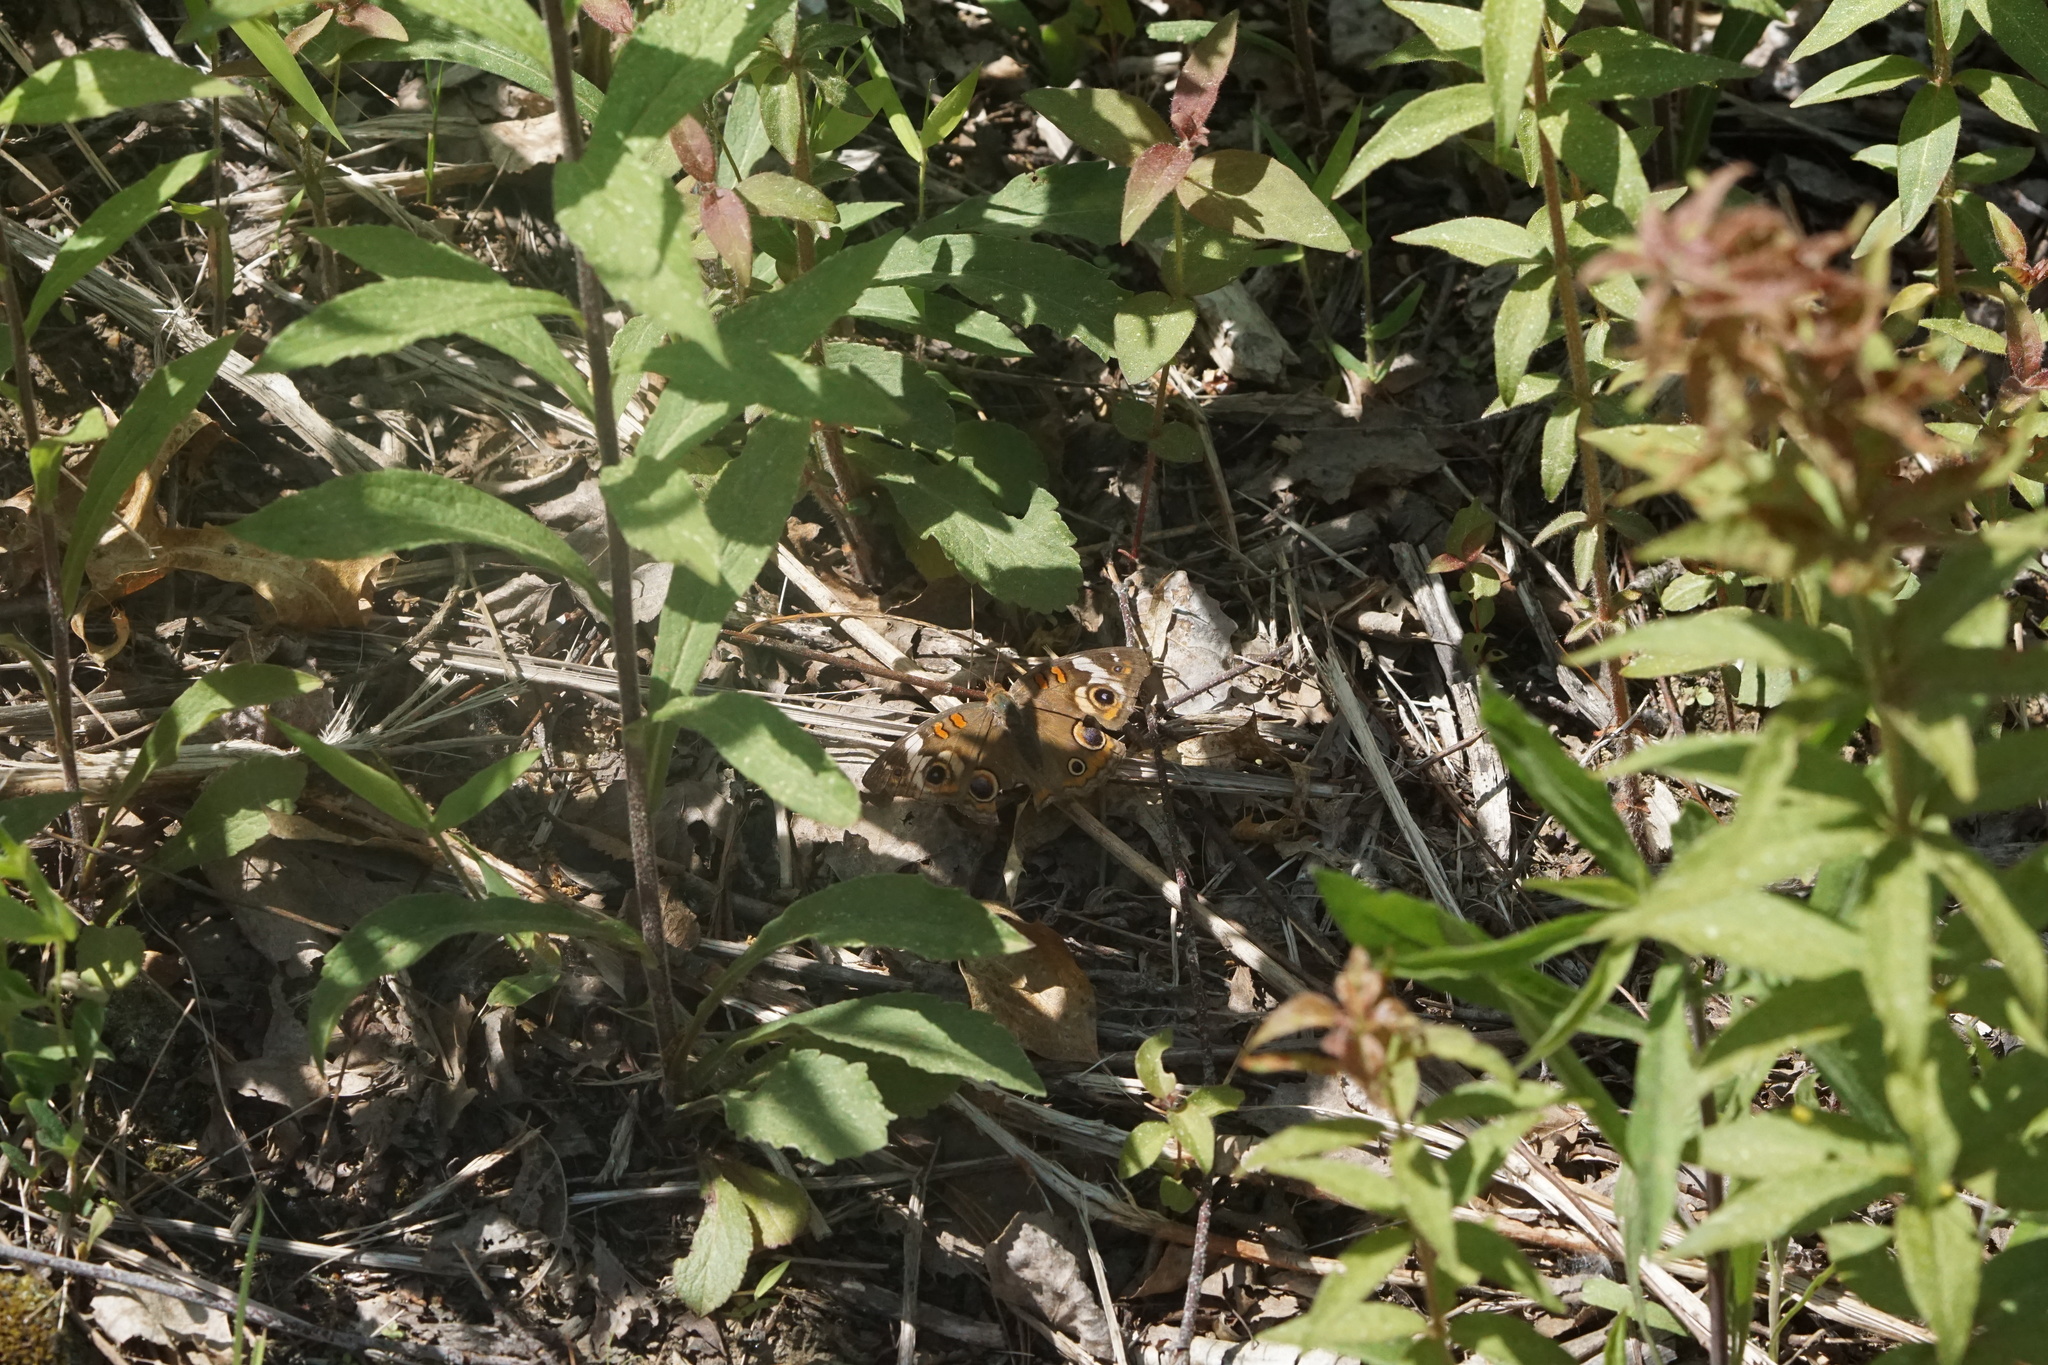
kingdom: Animalia
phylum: Arthropoda
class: Insecta
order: Lepidoptera
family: Nymphalidae
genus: Junonia
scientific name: Junonia coenia
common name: Common buckeye
